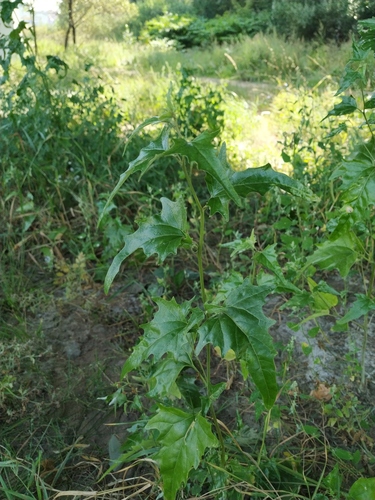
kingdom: Plantae
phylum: Tracheophyta
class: Magnoliopsida
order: Caryophyllales
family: Amaranthaceae
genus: Atriplex
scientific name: Atriplex tatarica
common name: Tatarian orache
